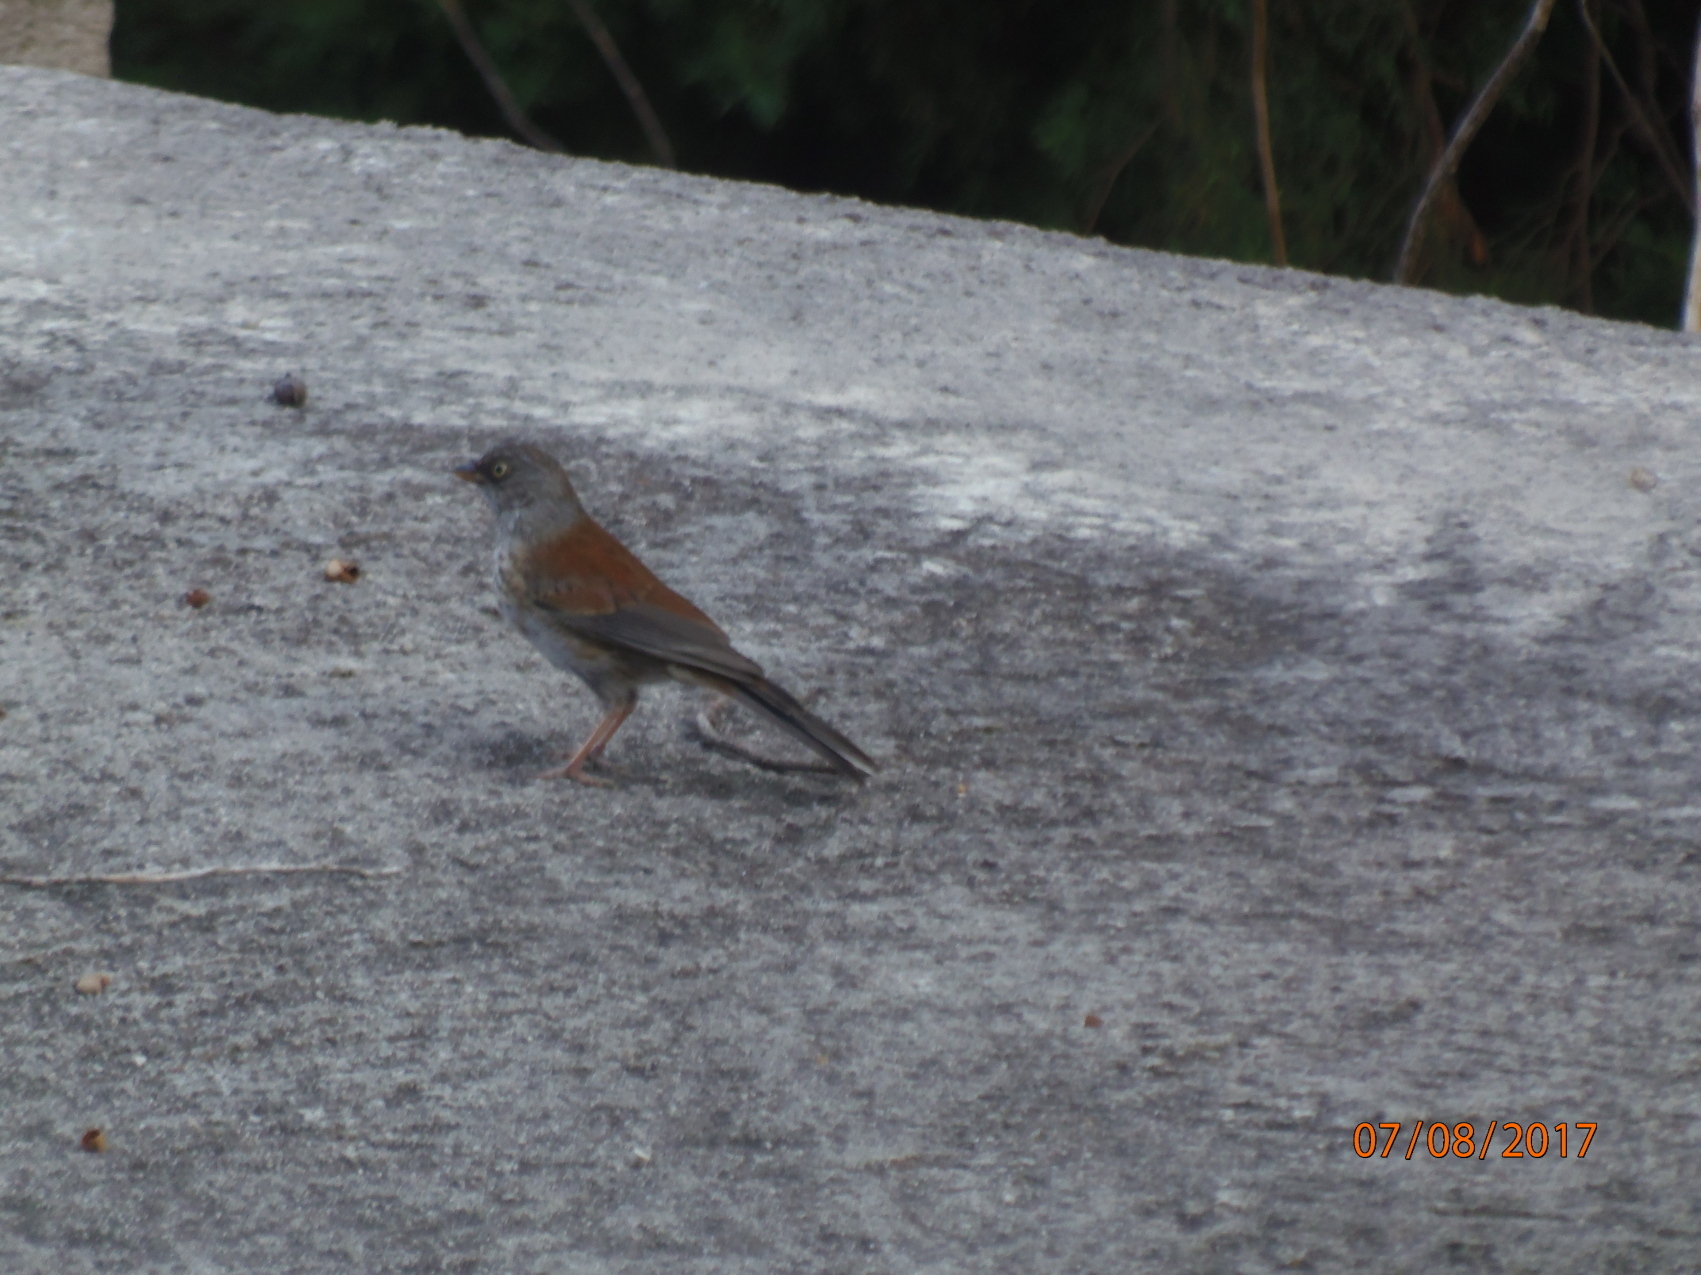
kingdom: Animalia
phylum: Chordata
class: Aves
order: Passeriformes
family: Passerellidae
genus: Junco
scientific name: Junco phaeonotus
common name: Yellow-eyed junco
